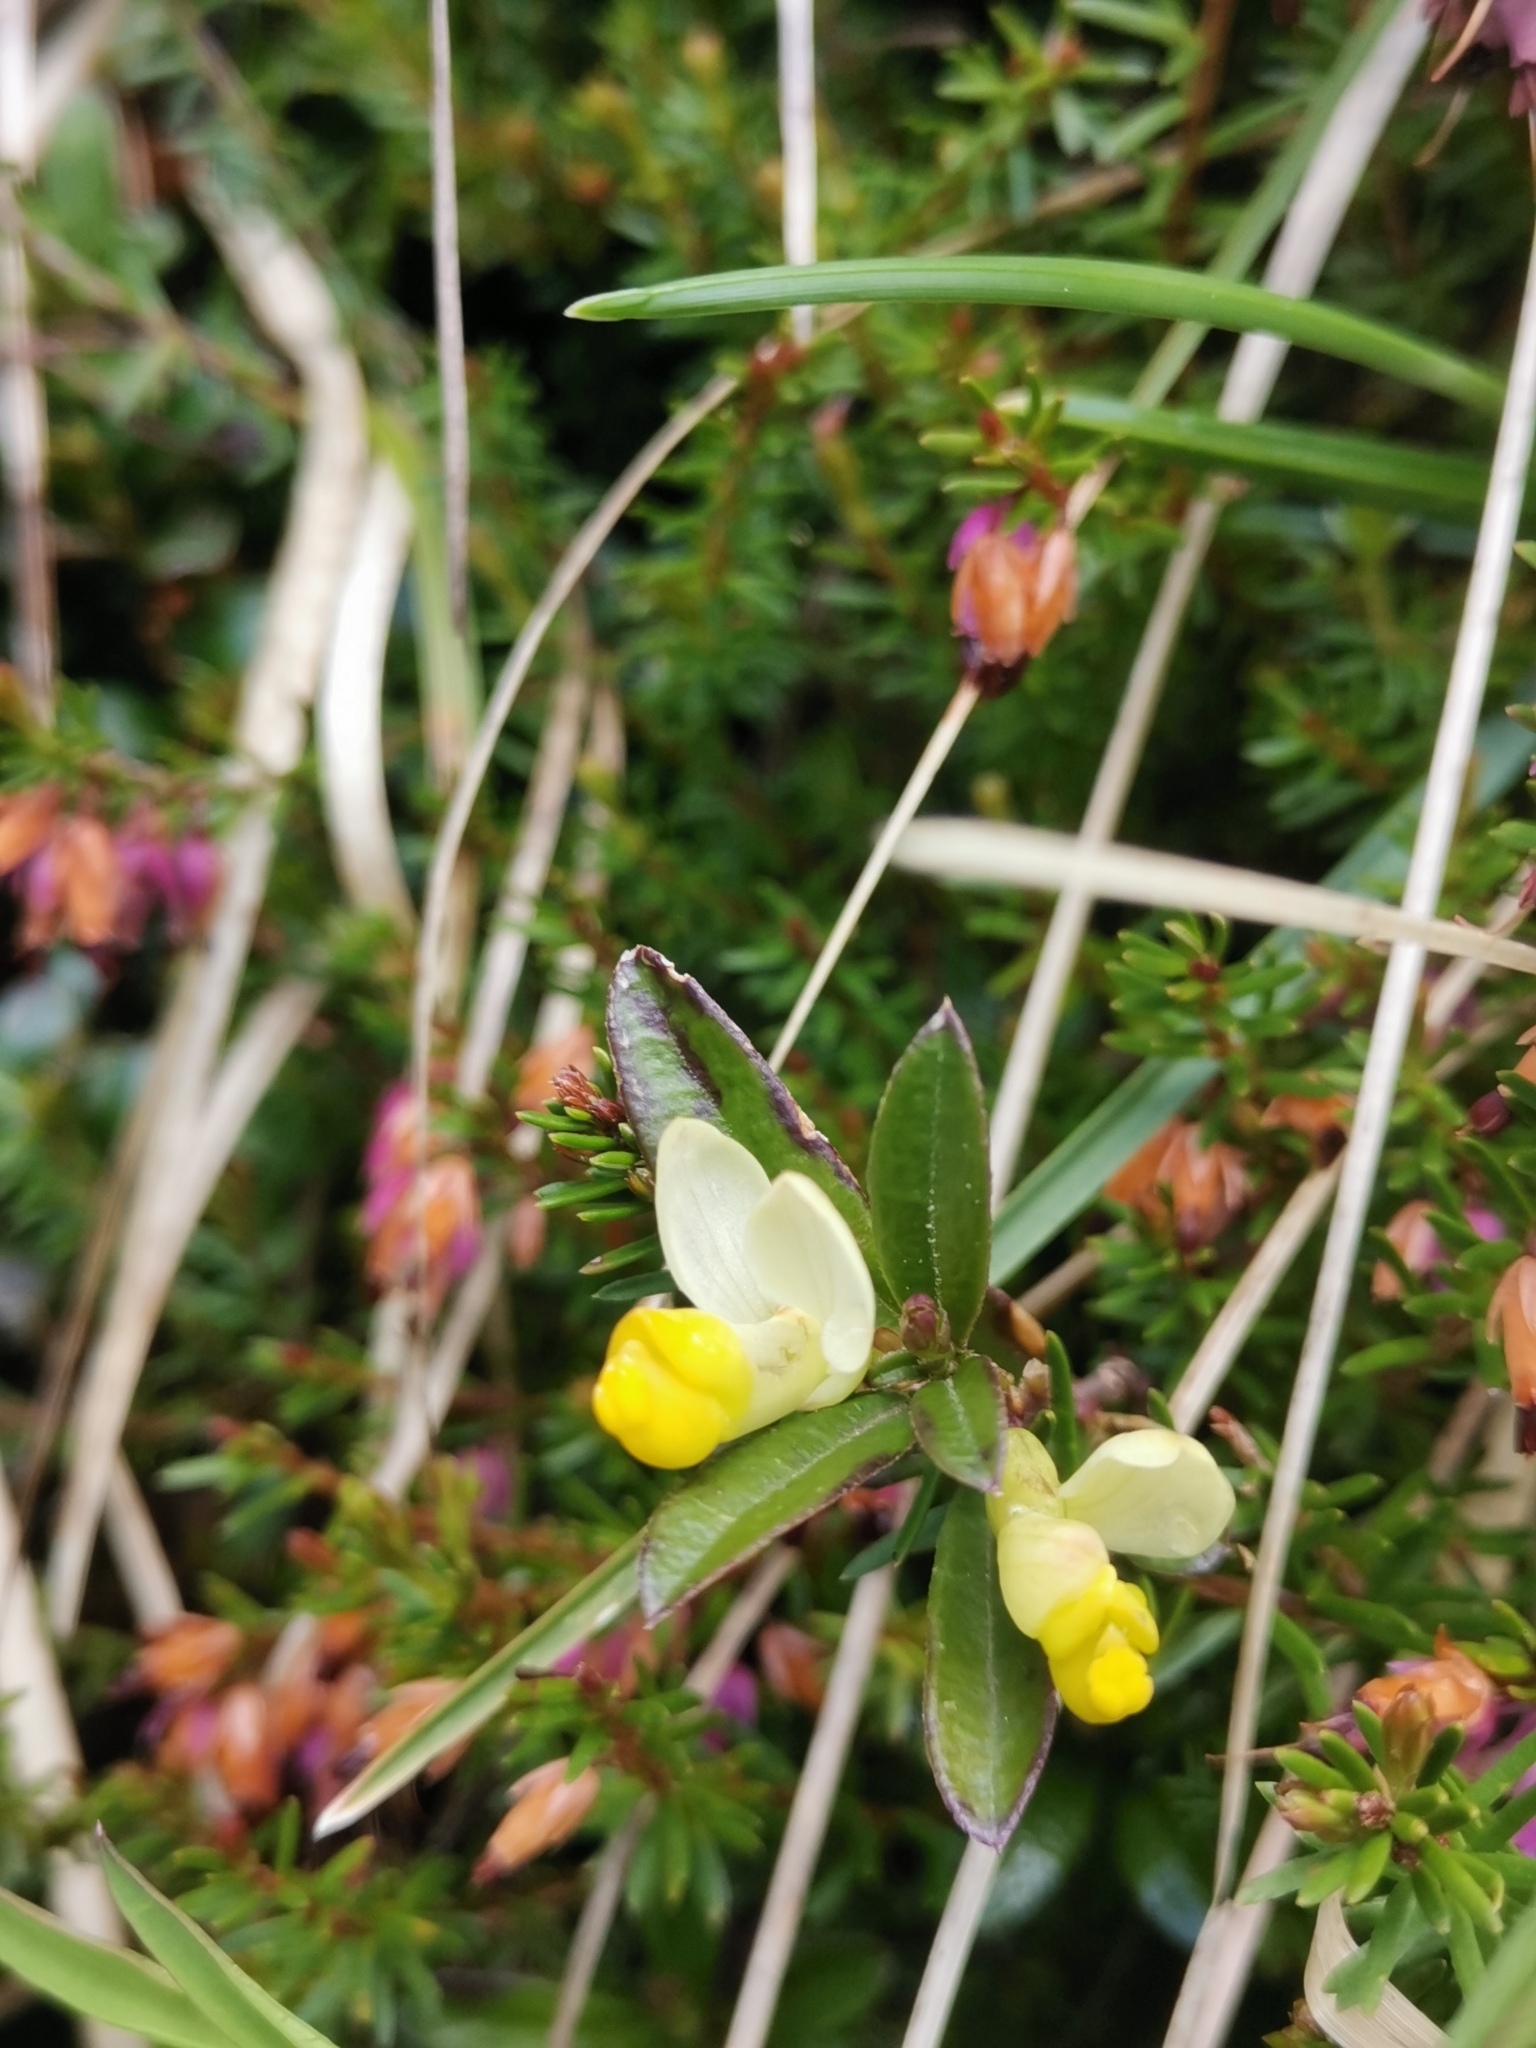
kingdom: Plantae
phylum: Tracheophyta
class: Magnoliopsida
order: Fabales
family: Polygalaceae
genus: Polygaloides
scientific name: Polygaloides chamaebuxus
